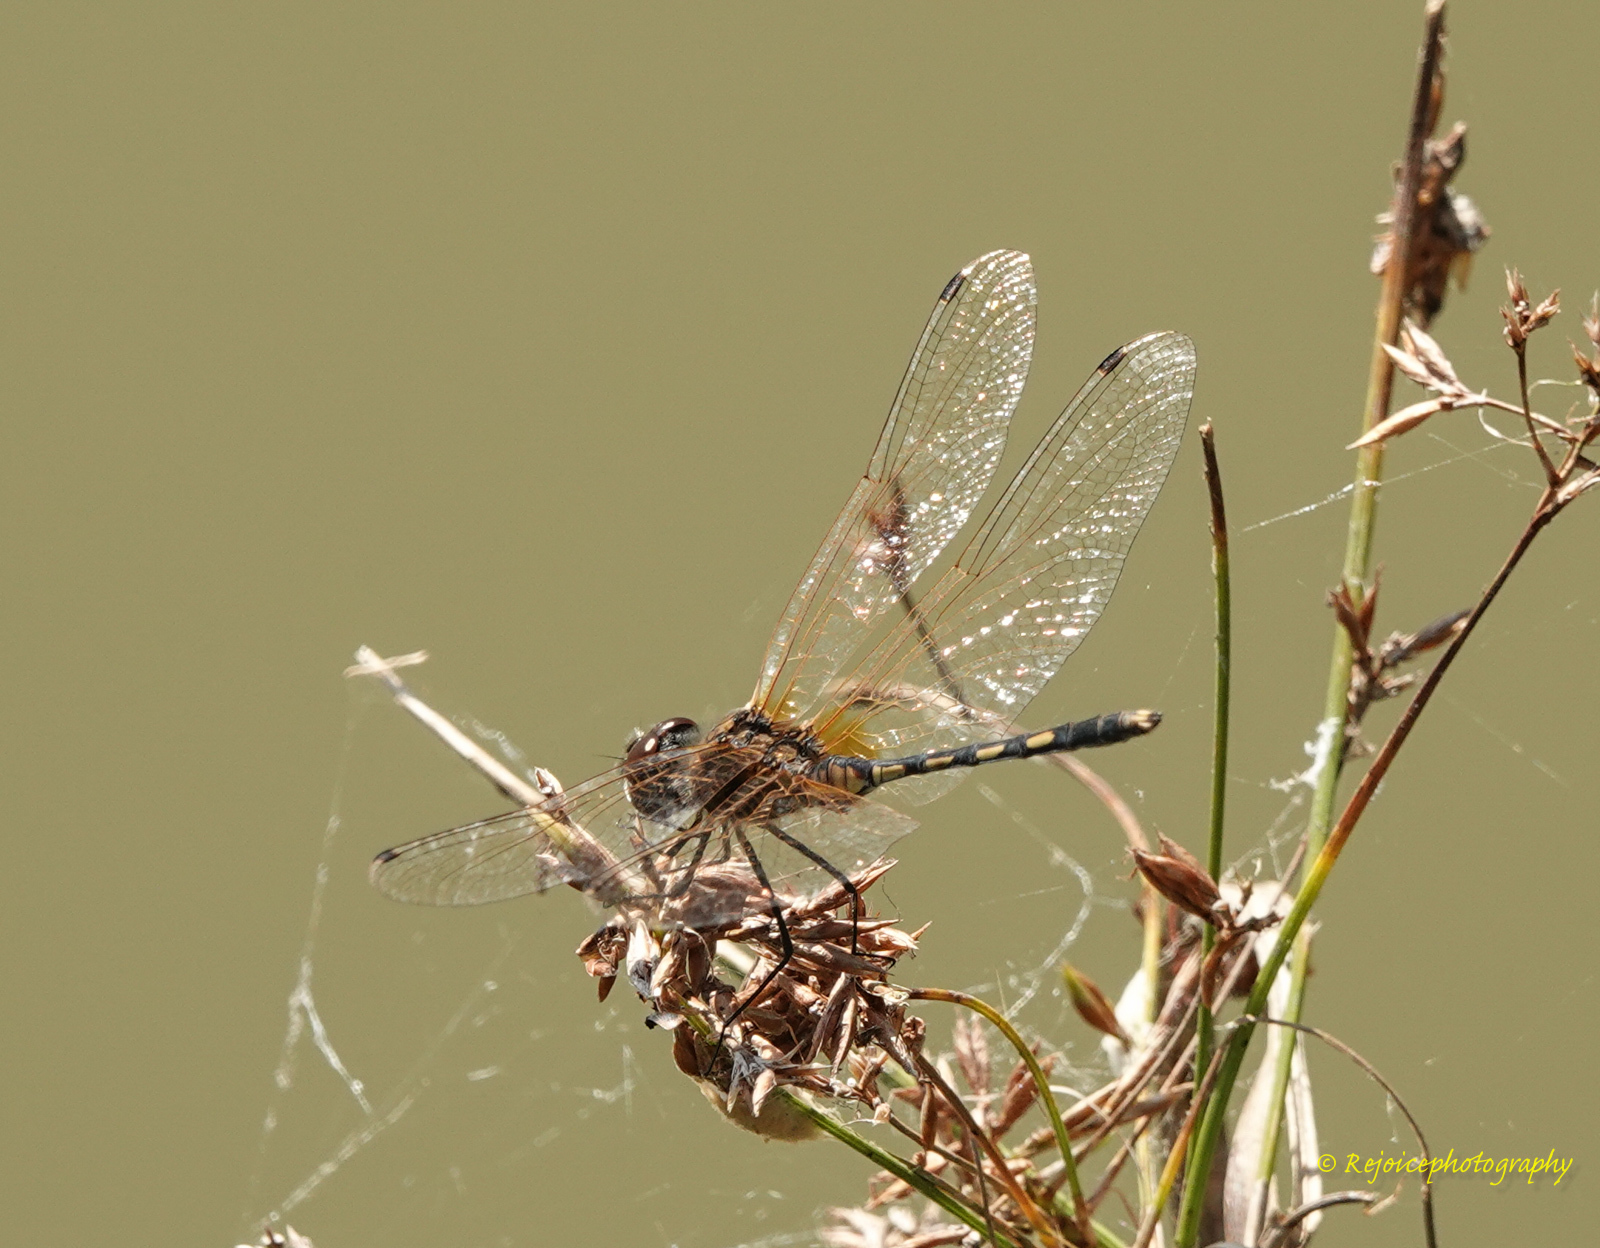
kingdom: Animalia
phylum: Arthropoda
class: Insecta
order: Odonata
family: Libellulidae
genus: Trithemis
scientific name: Trithemis pallidinervis
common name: Dancing dropwing
